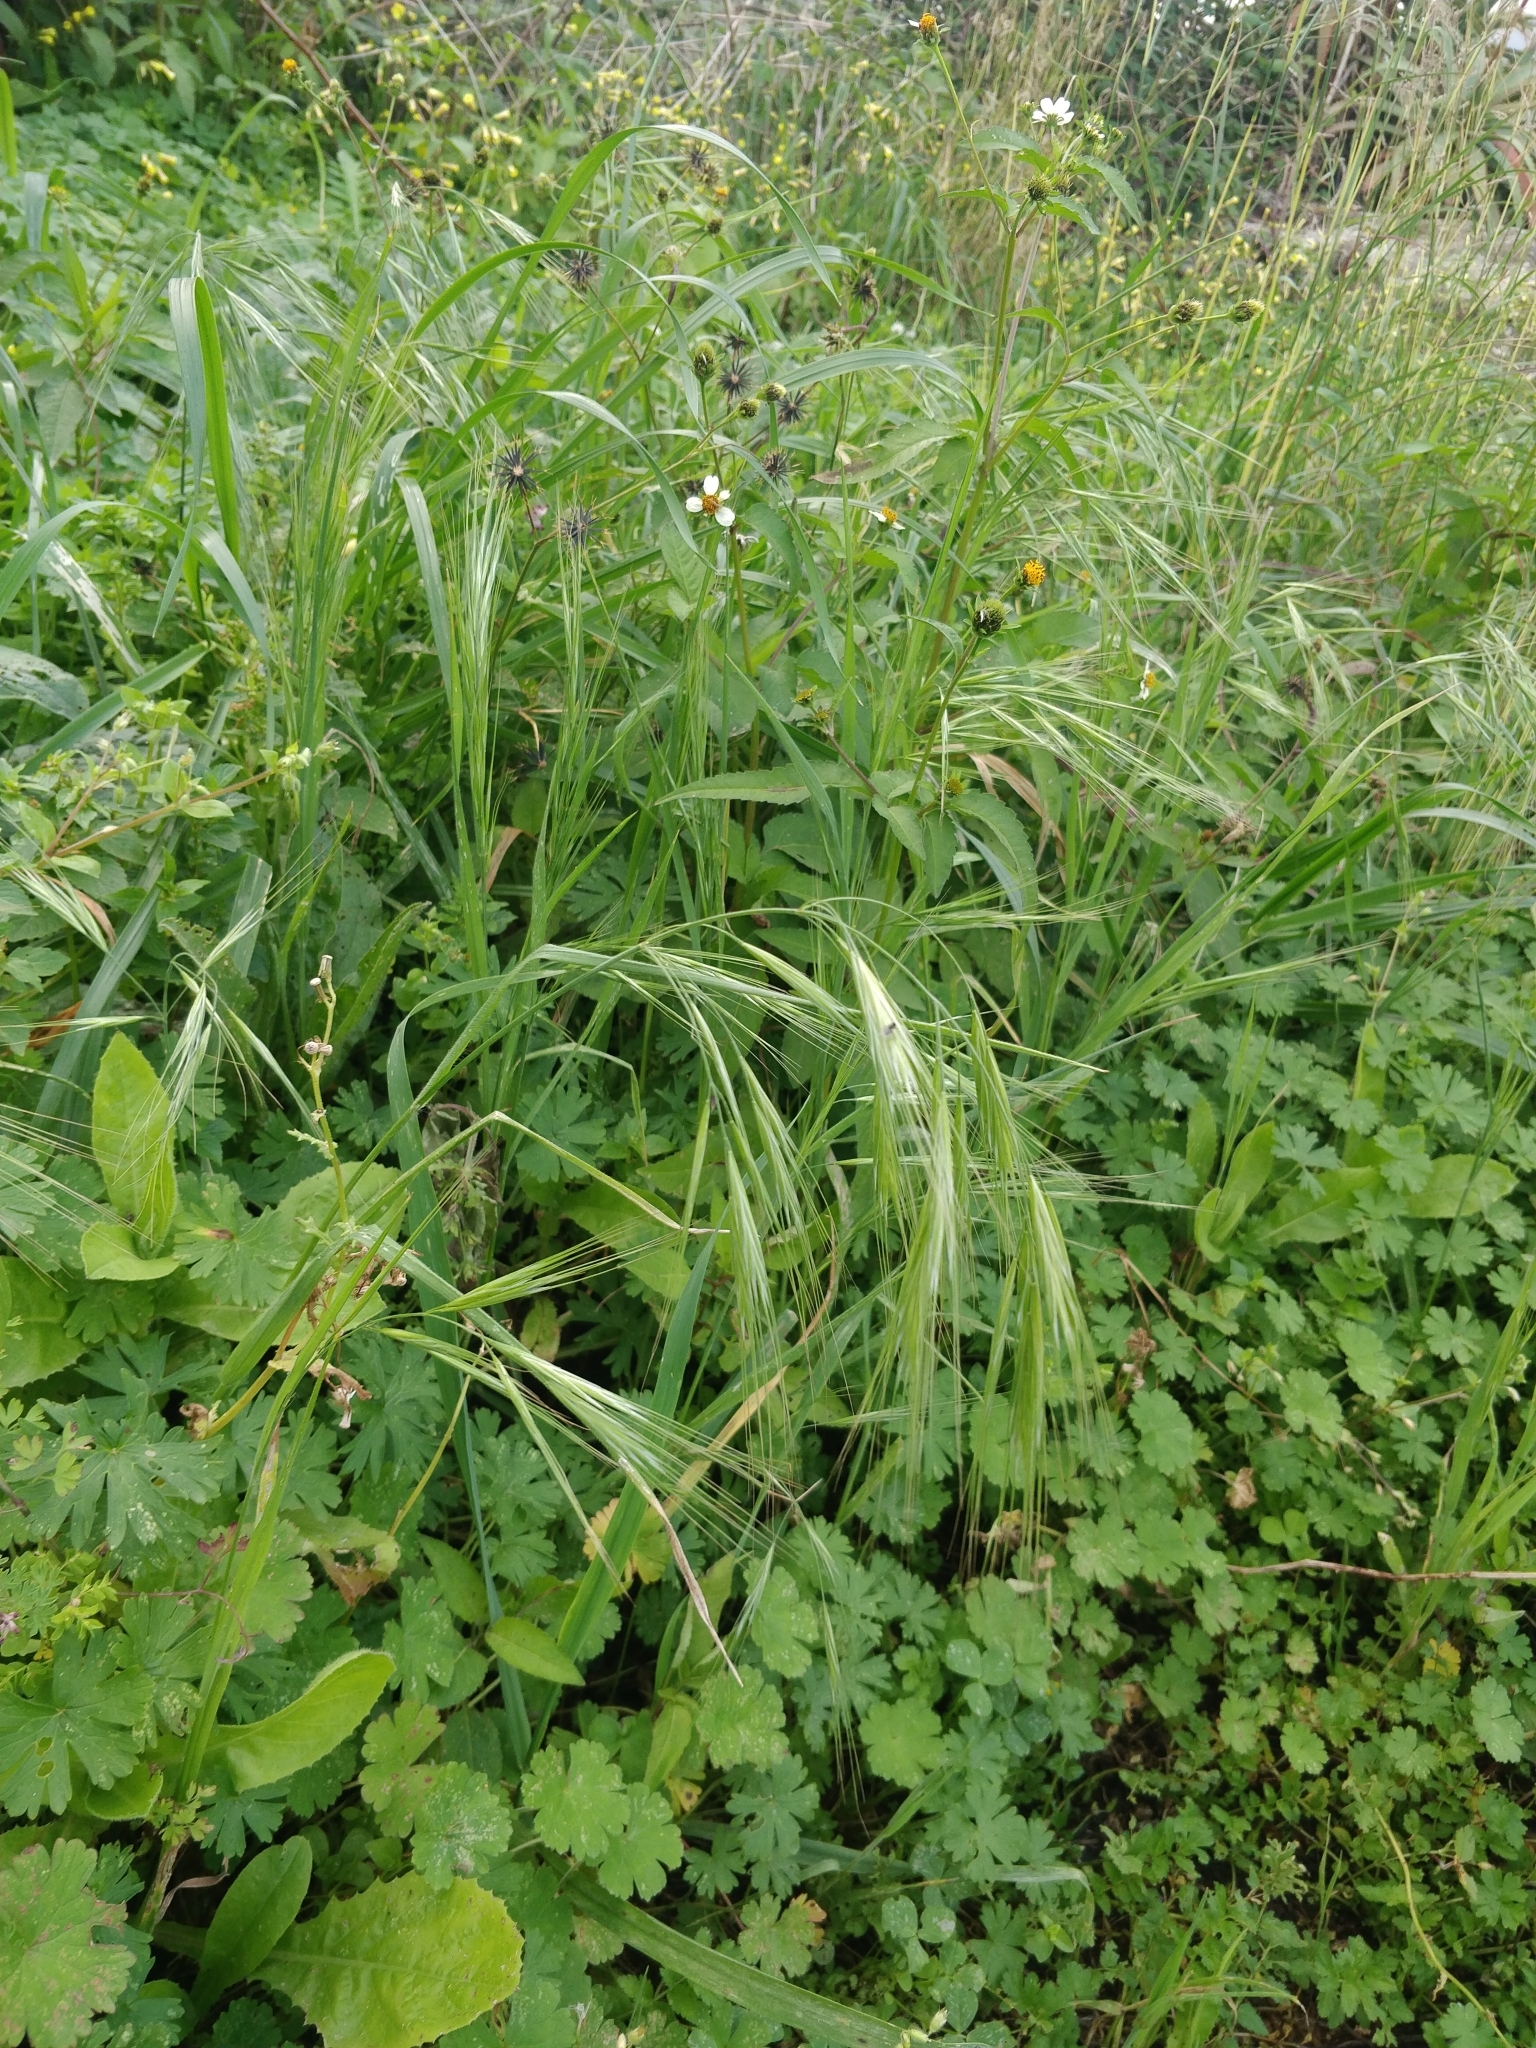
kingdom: Plantae
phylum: Tracheophyta
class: Liliopsida
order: Poales
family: Poaceae
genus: Stipellula
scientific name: Stipellula capensis
